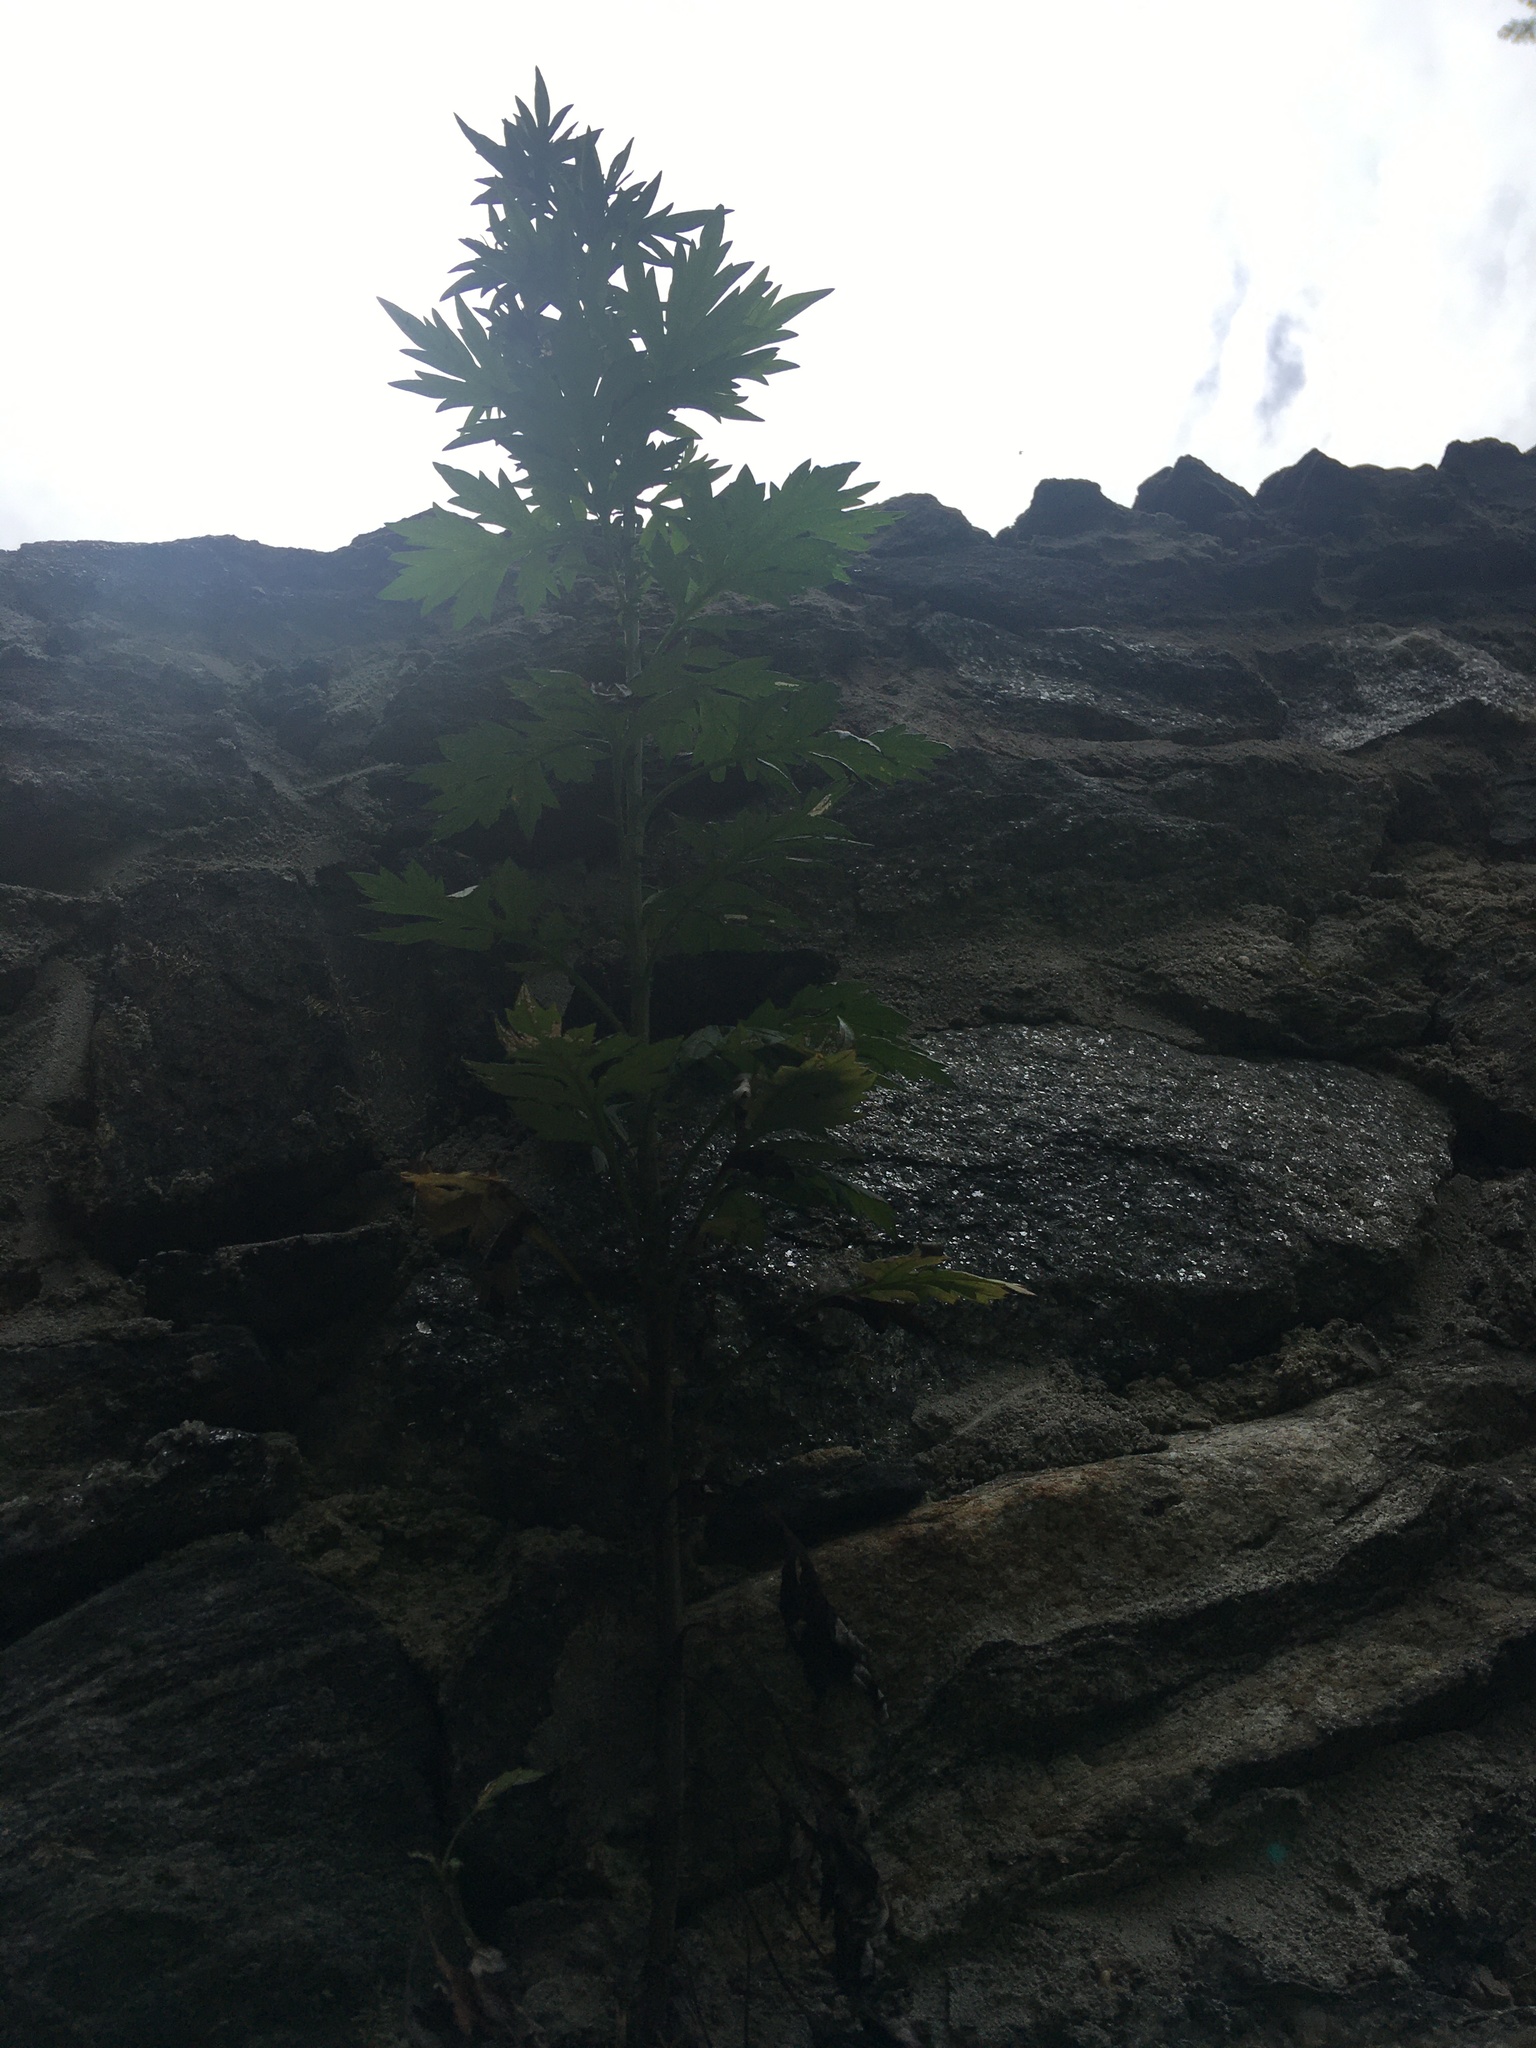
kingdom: Plantae
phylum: Tracheophyta
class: Magnoliopsida
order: Asterales
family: Asteraceae
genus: Artemisia
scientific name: Artemisia vulgaris
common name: Mugwort
